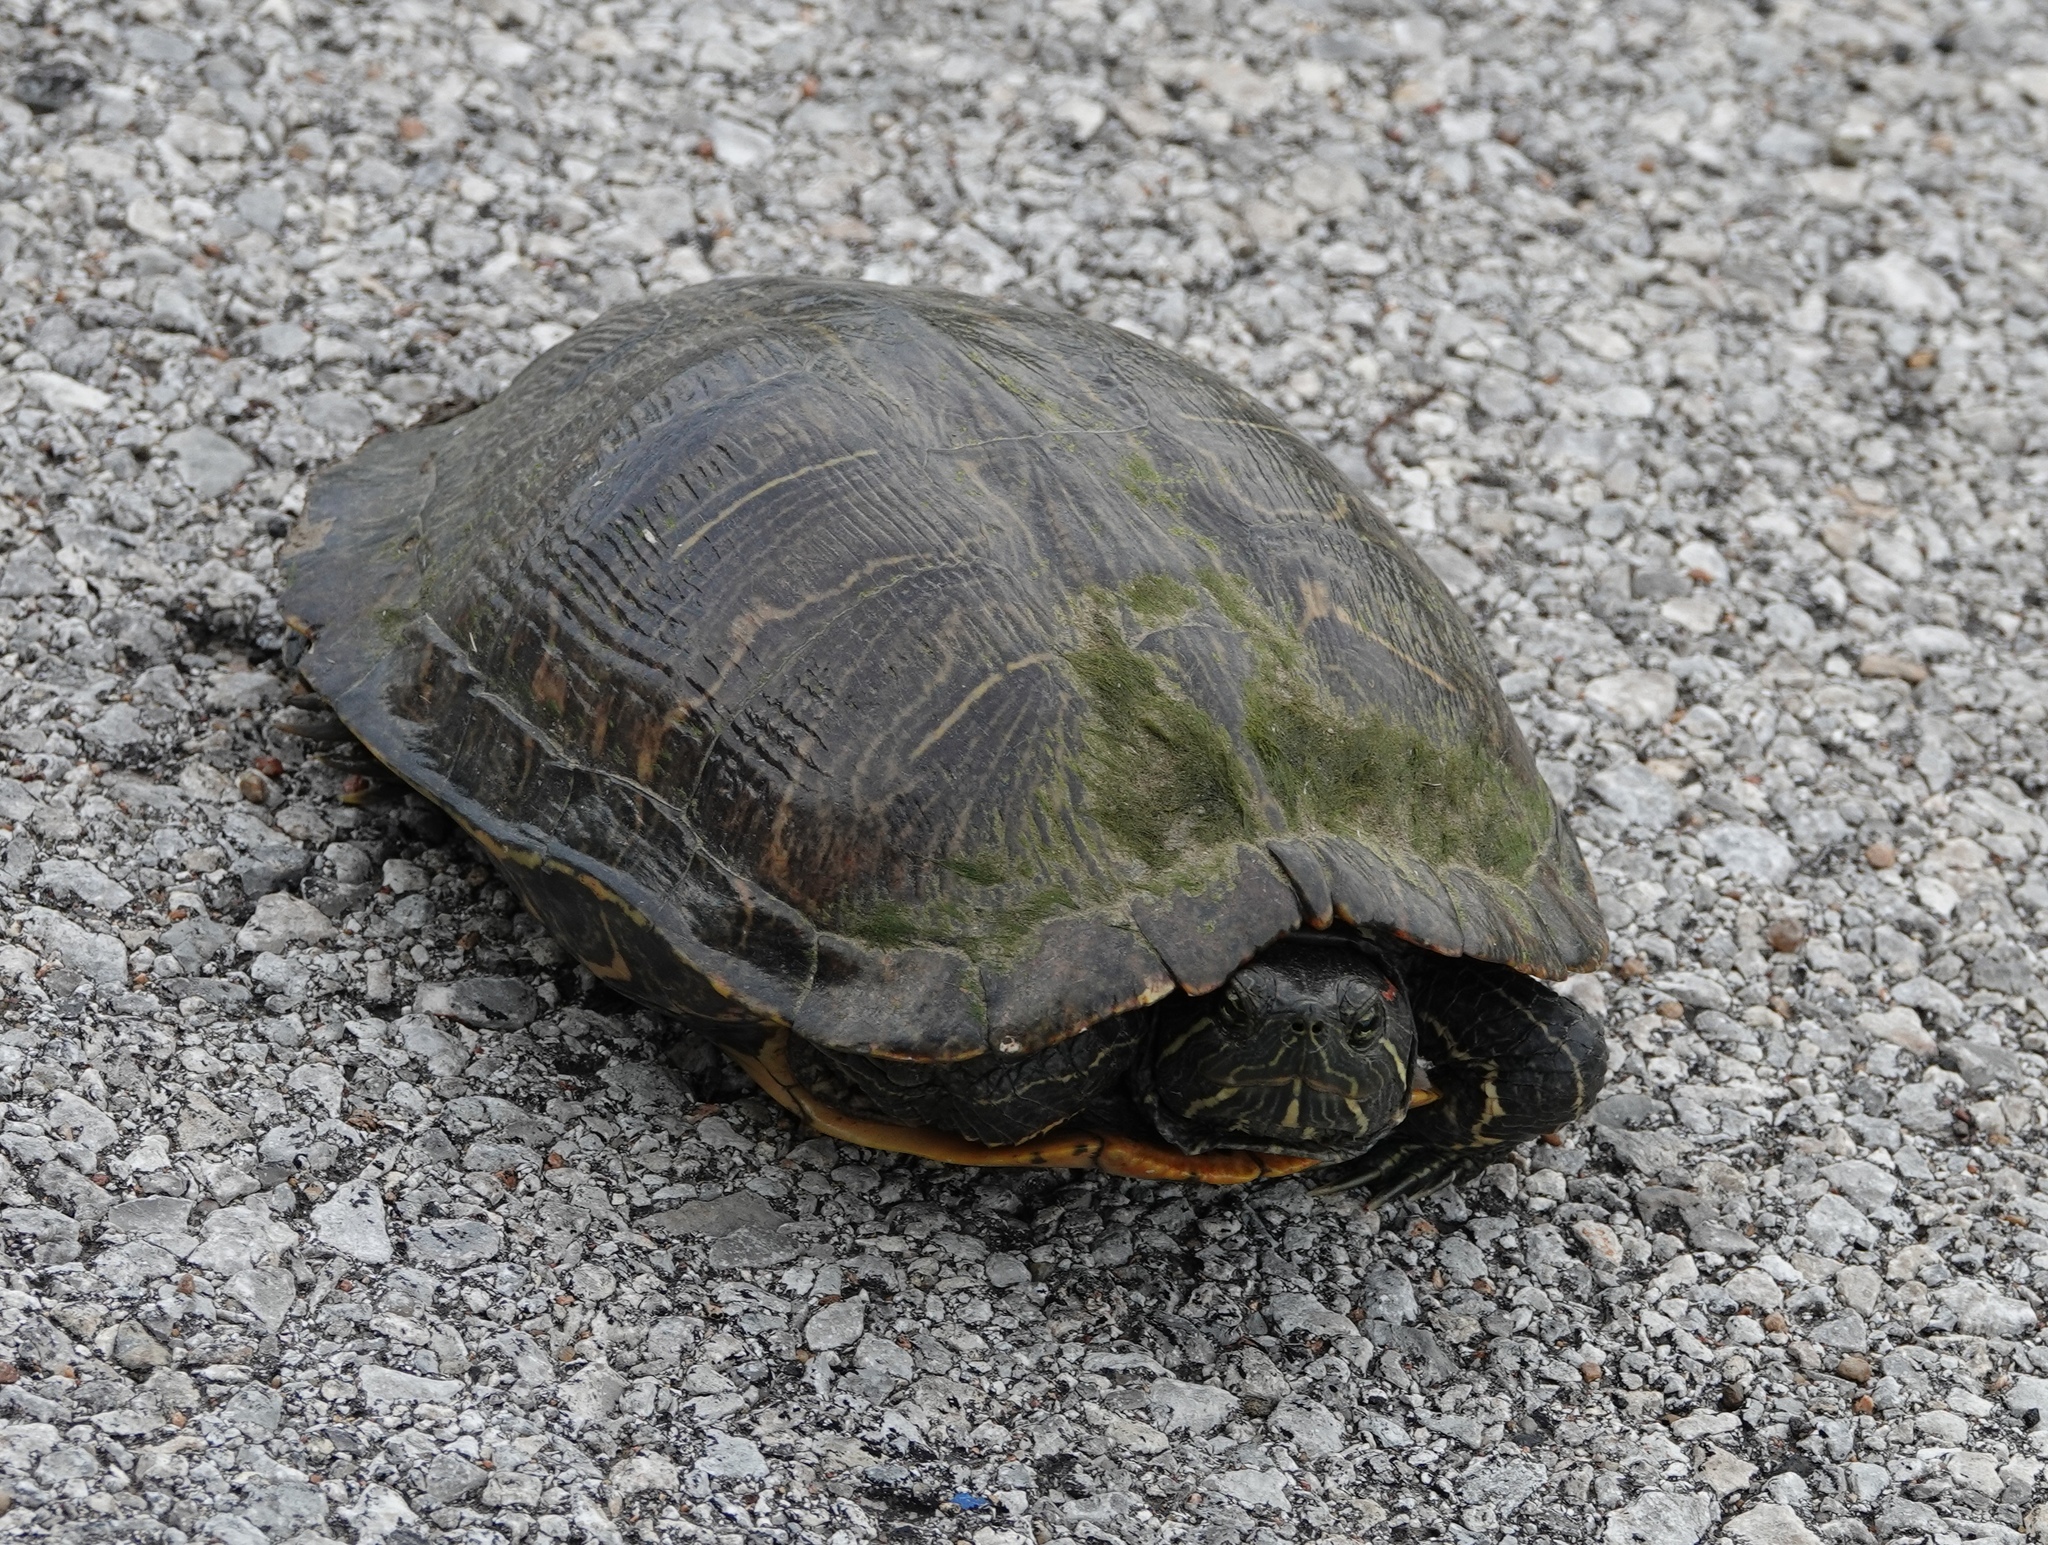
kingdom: Animalia
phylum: Chordata
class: Testudines
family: Emydidae
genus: Trachemys
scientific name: Trachemys scripta
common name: Slider
